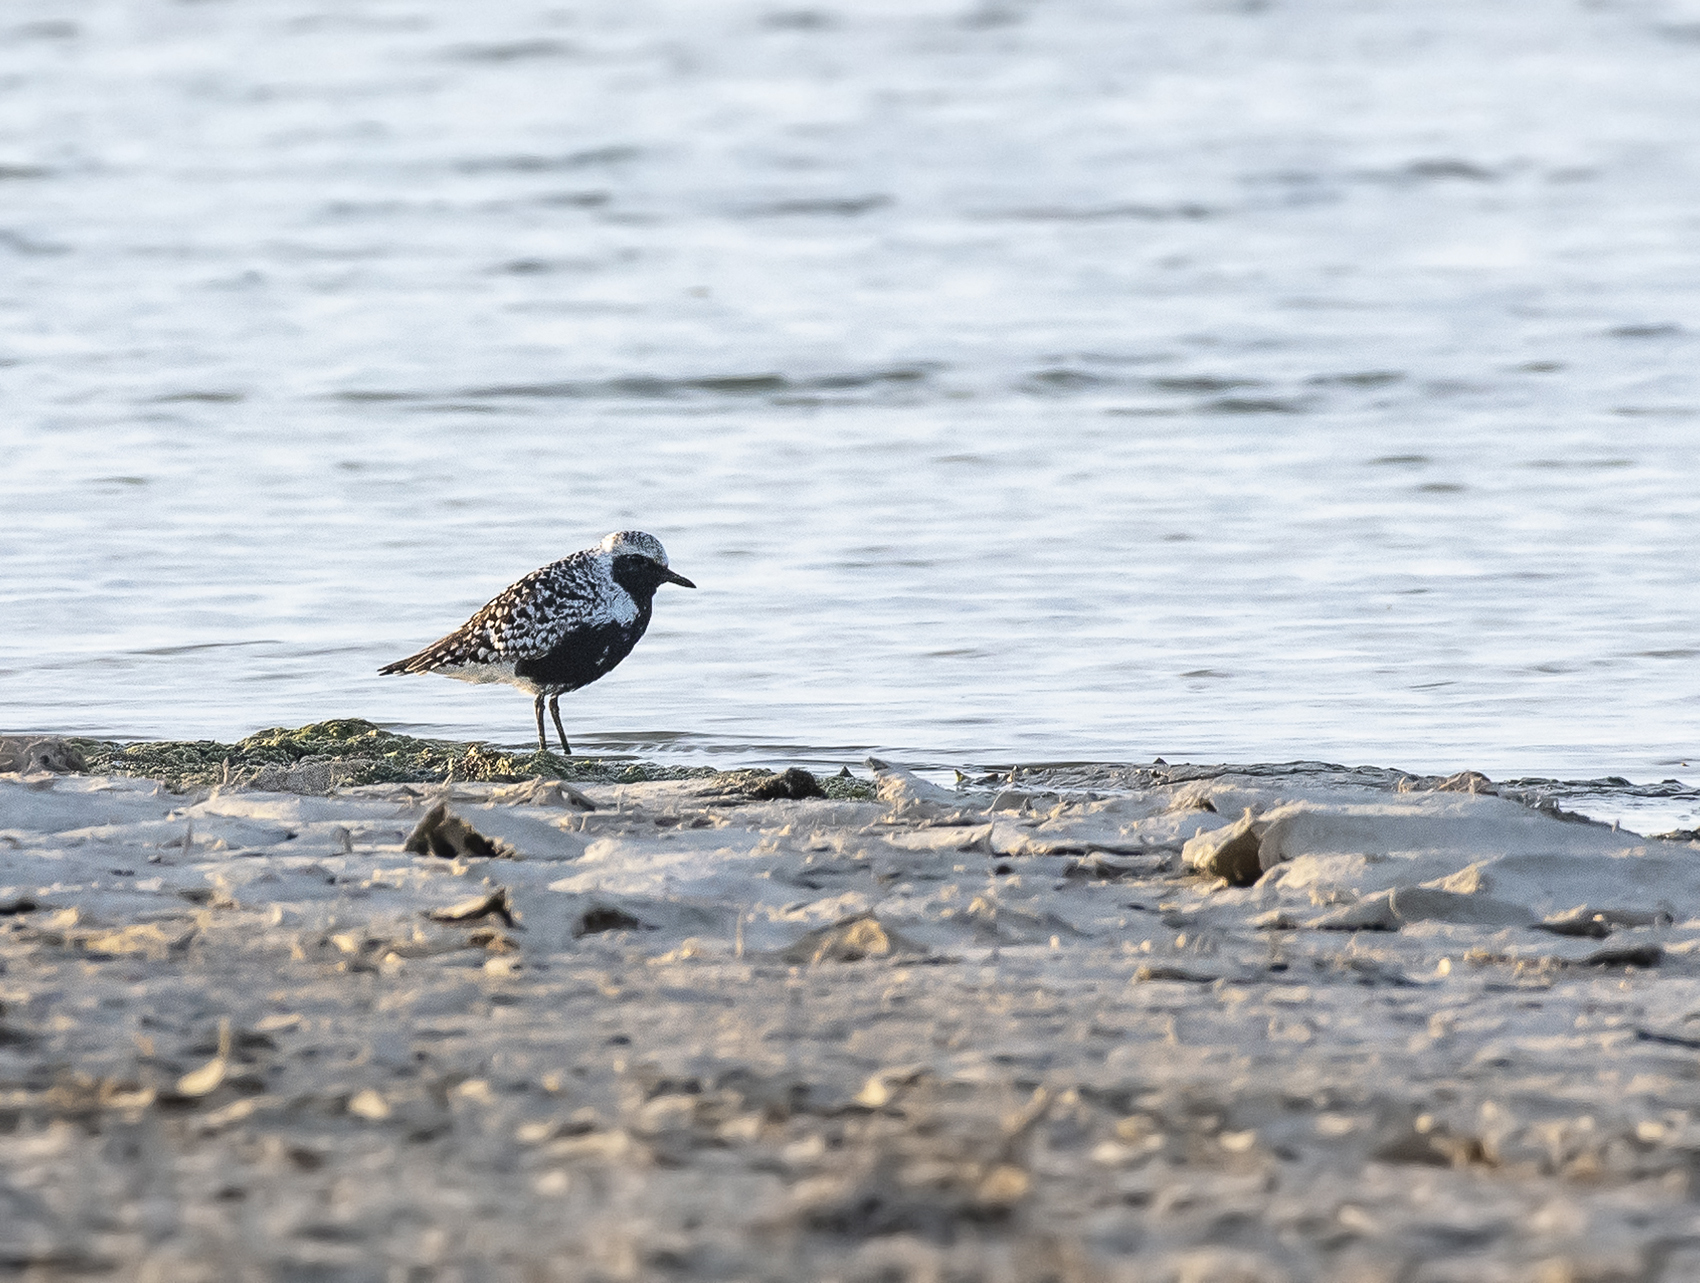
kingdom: Animalia
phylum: Chordata
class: Aves
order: Charadriiformes
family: Charadriidae
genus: Pluvialis
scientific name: Pluvialis squatarola
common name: Grey plover
